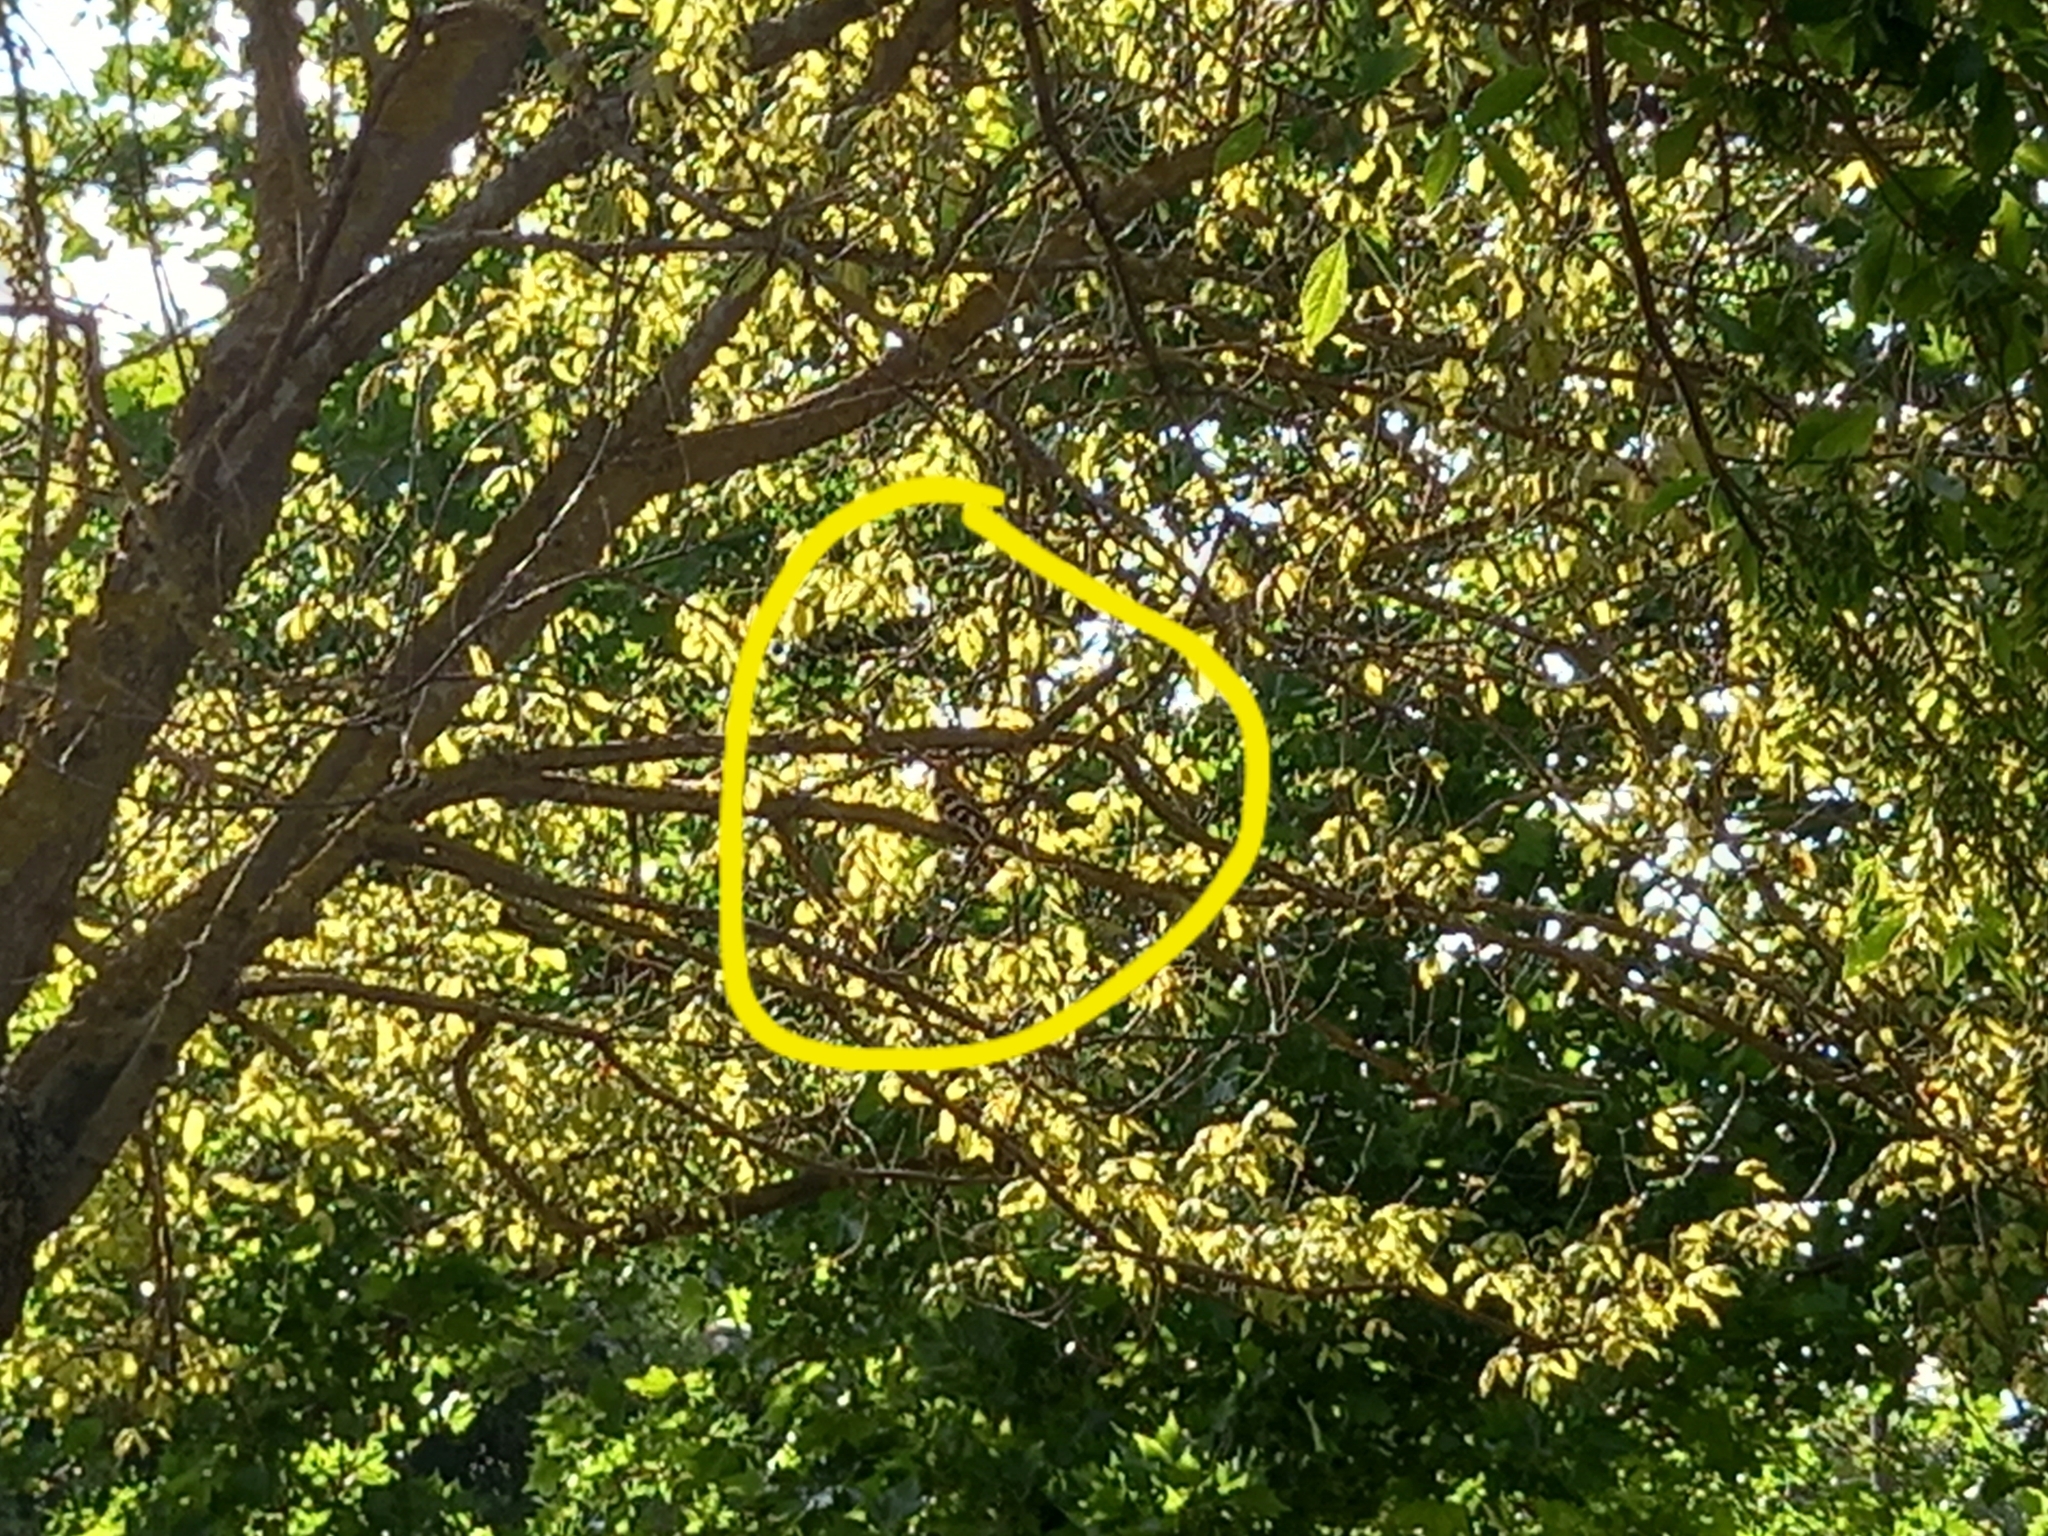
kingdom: Animalia
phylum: Chordata
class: Aves
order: Bucerotiformes
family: Upupidae
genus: Upupa
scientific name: Upupa epops
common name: Eurasian hoopoe
